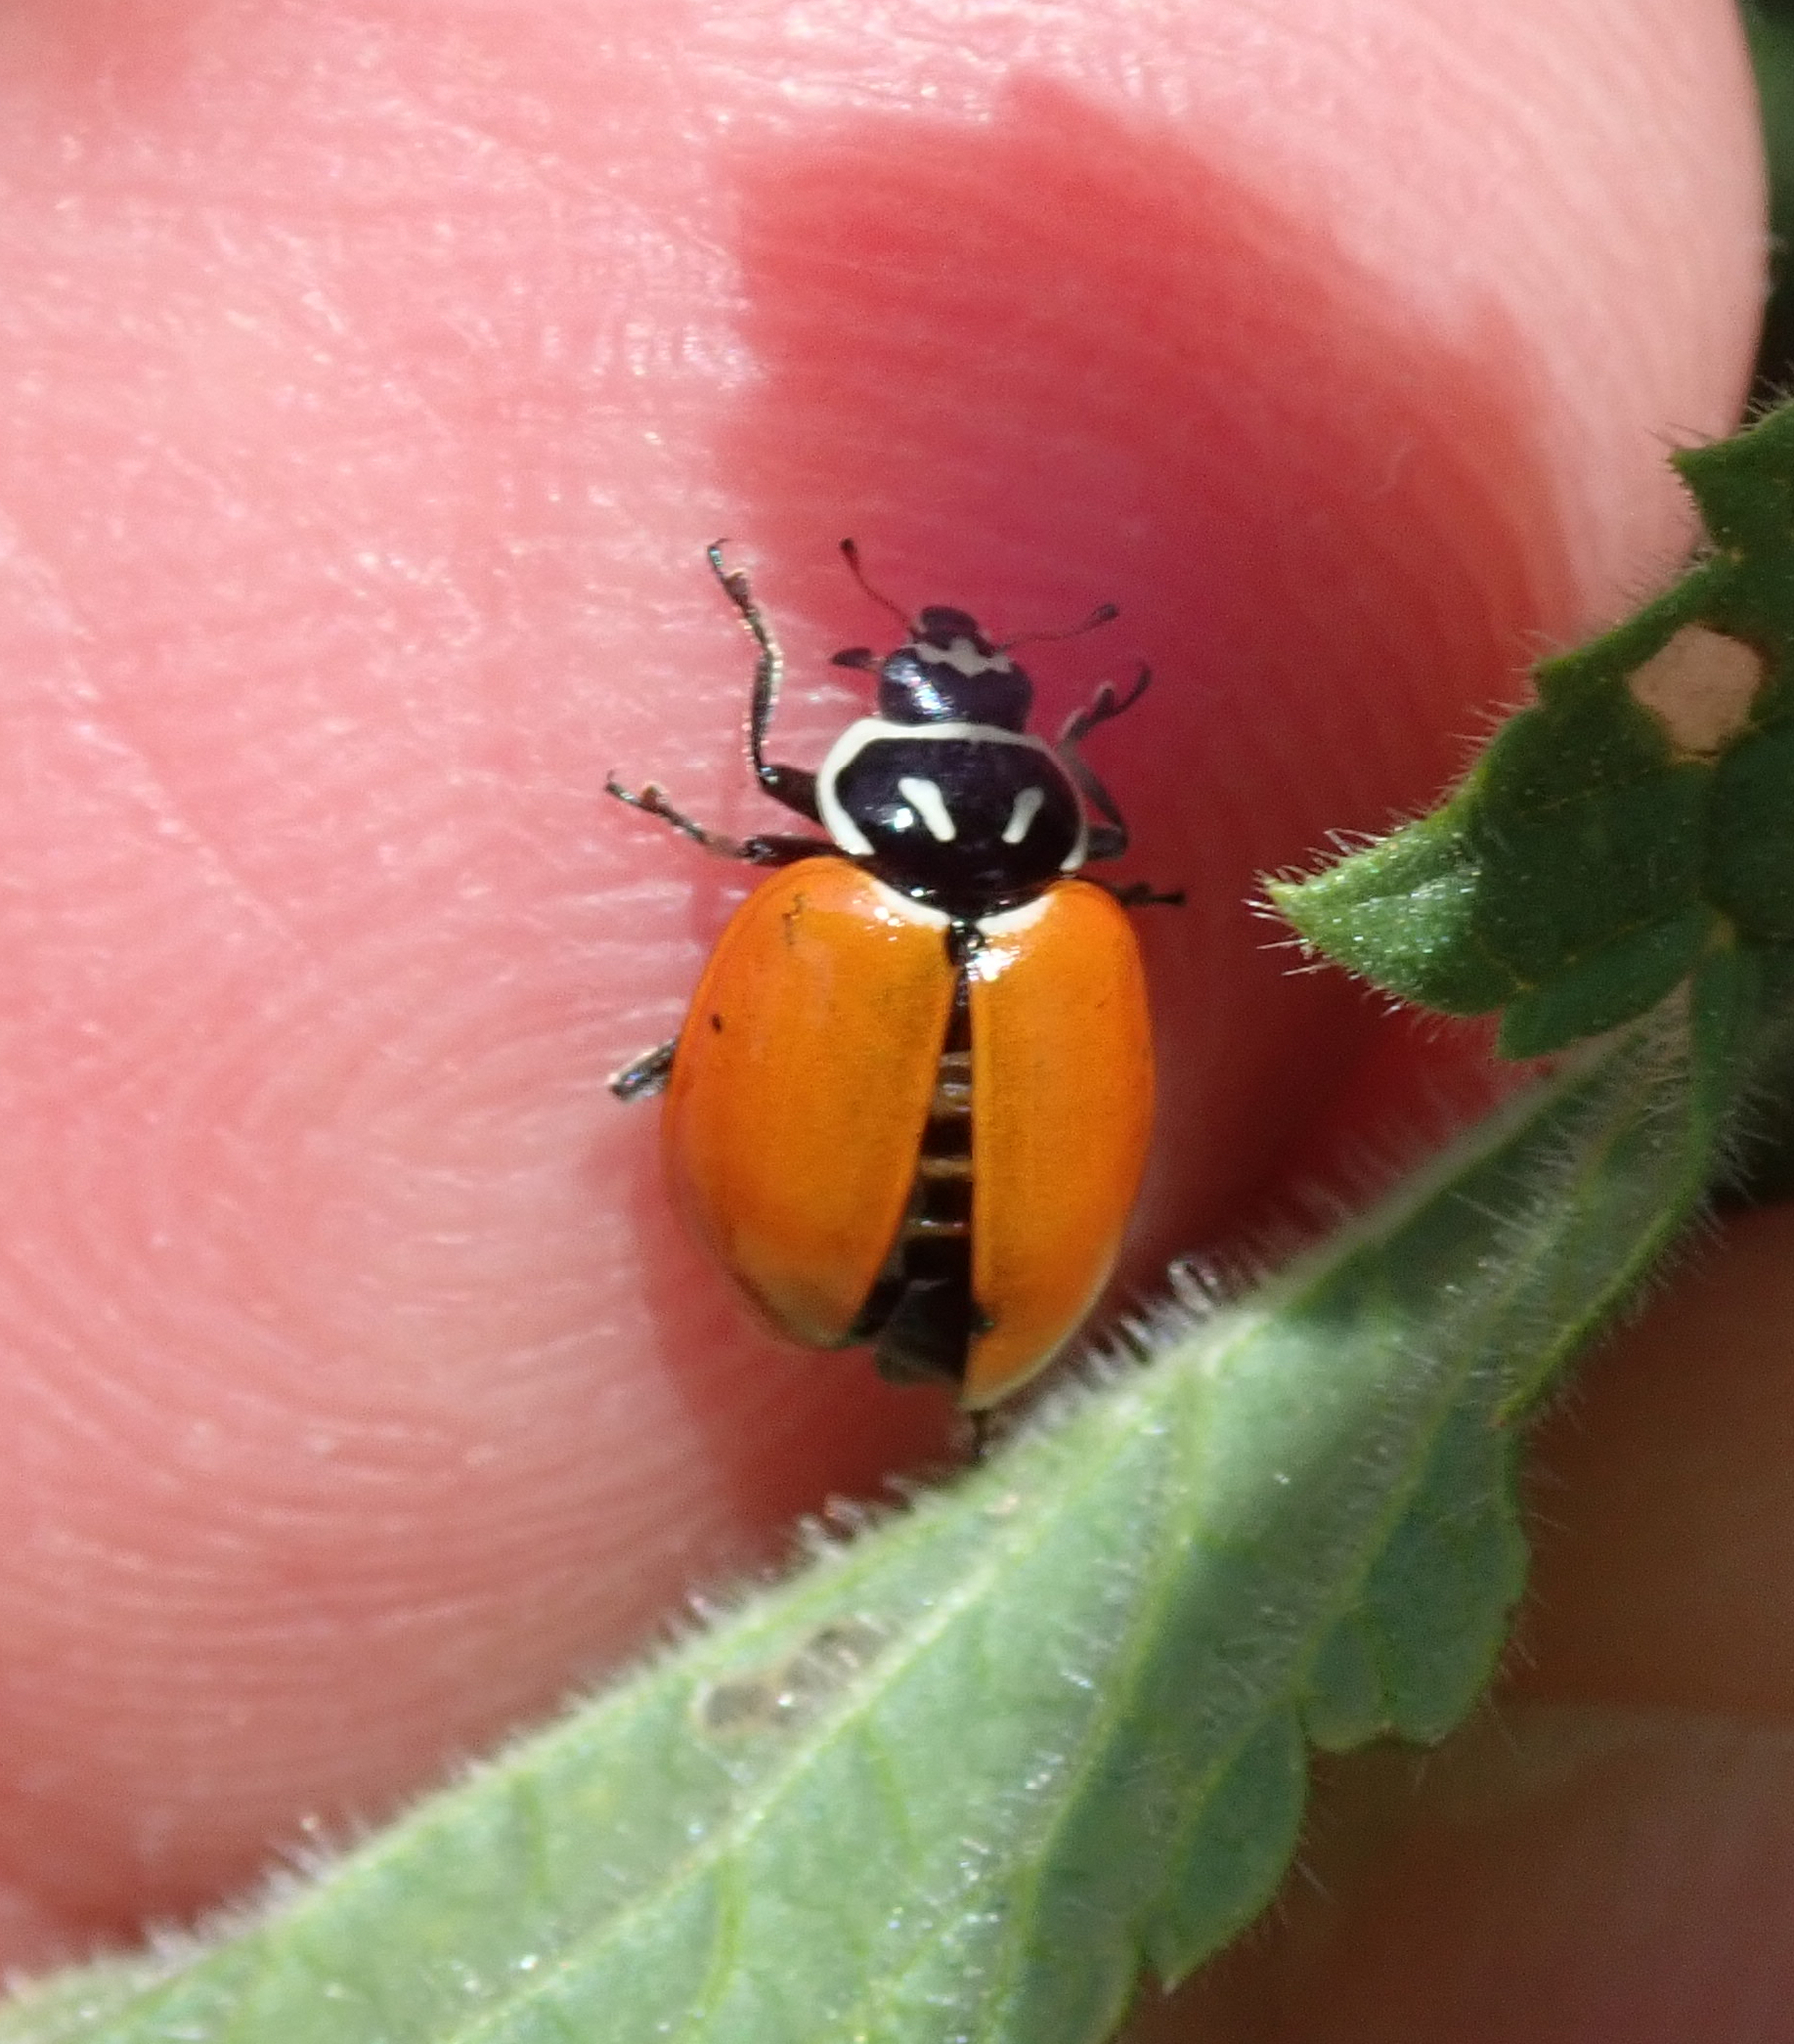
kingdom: Animalia
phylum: Arthropoda
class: Insecta
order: Coleoptera
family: Coccinellidae
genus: Hippodamia
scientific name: Hippodamia convergens
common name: Convergent lady beetle
